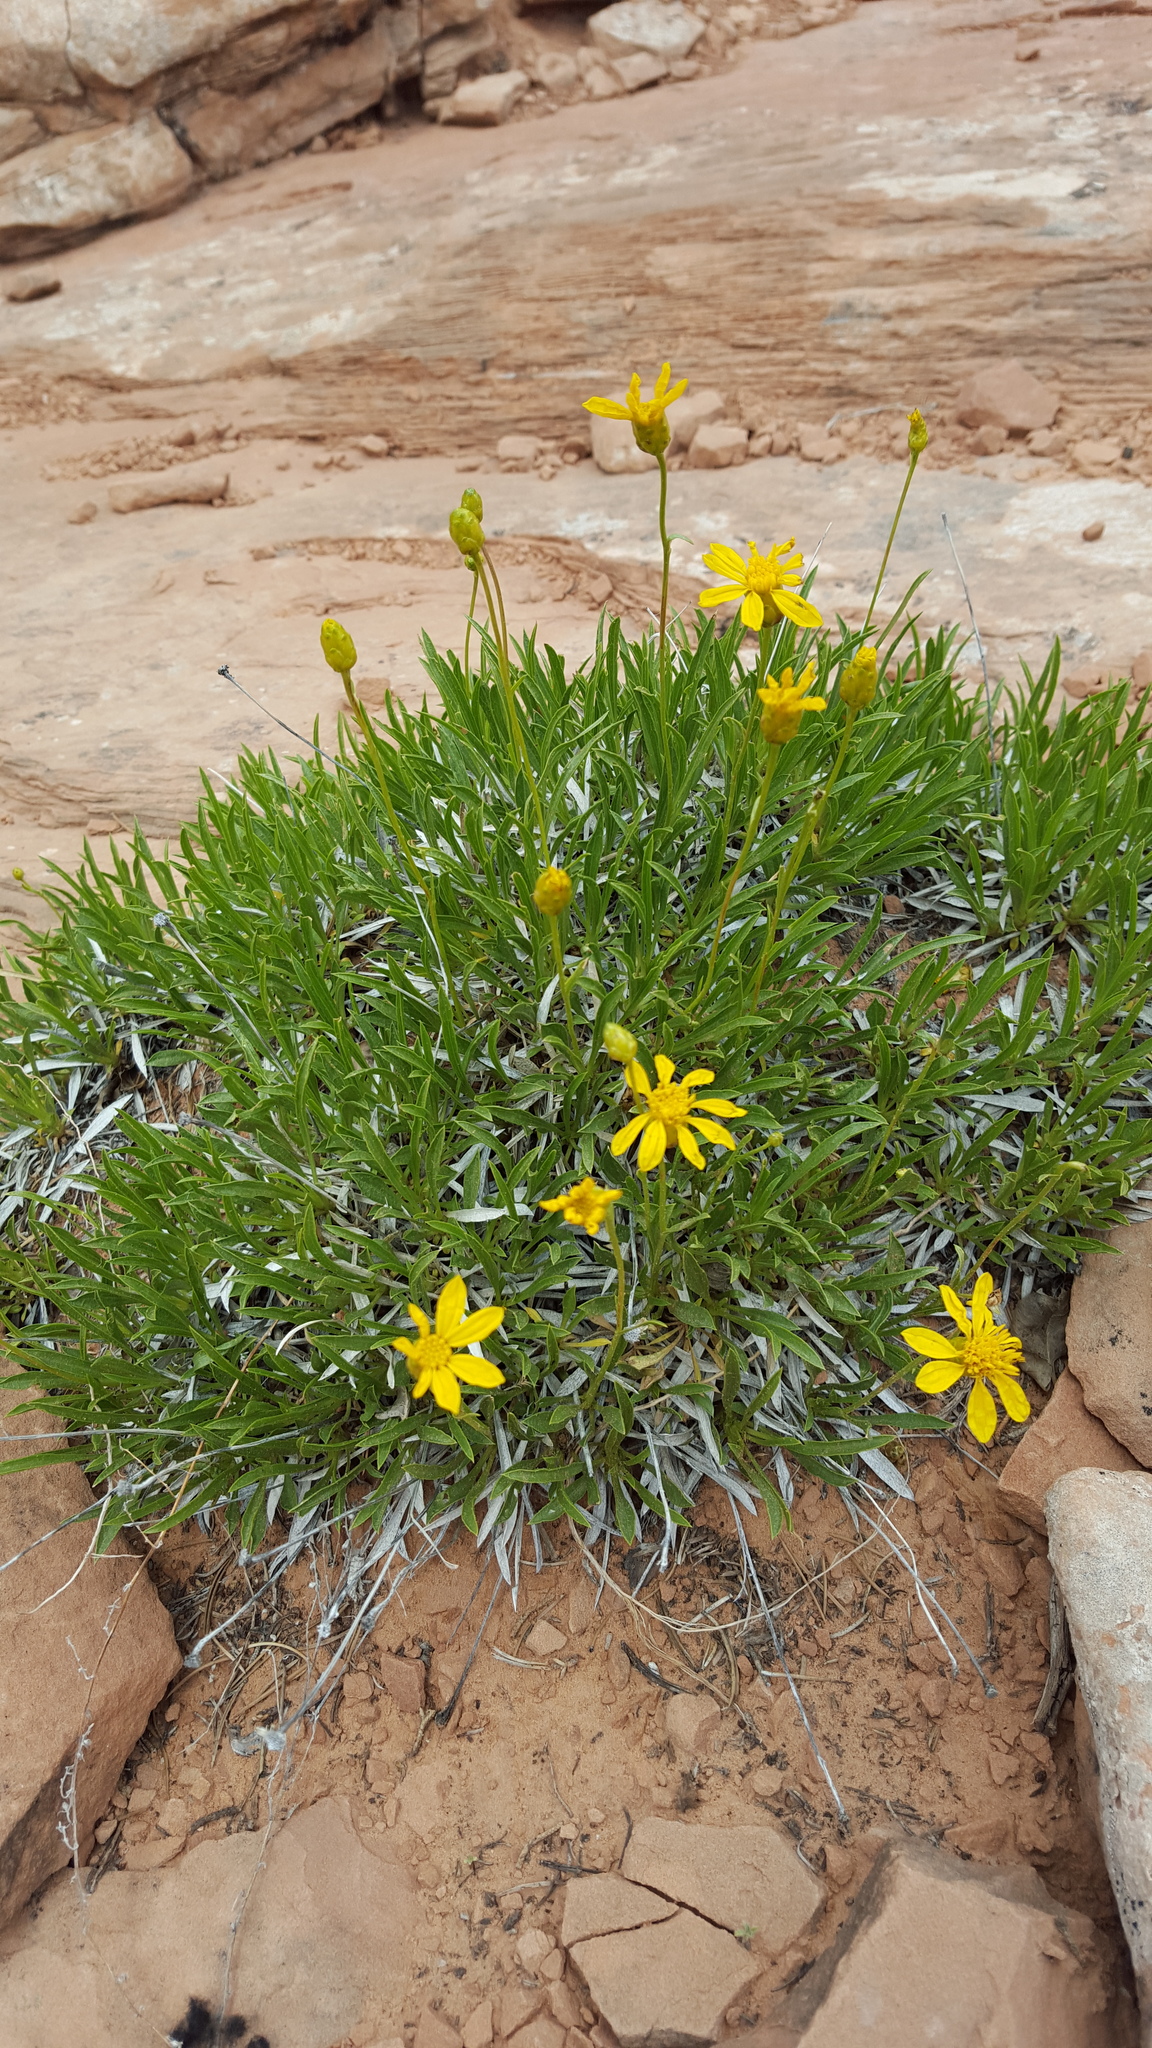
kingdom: Plantae
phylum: Tracheophyta
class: Magnoliopsida
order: Asterales
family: Asteraceae
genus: Stenotus
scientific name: Stenotus armerioides
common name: Thrifty goldenweed
